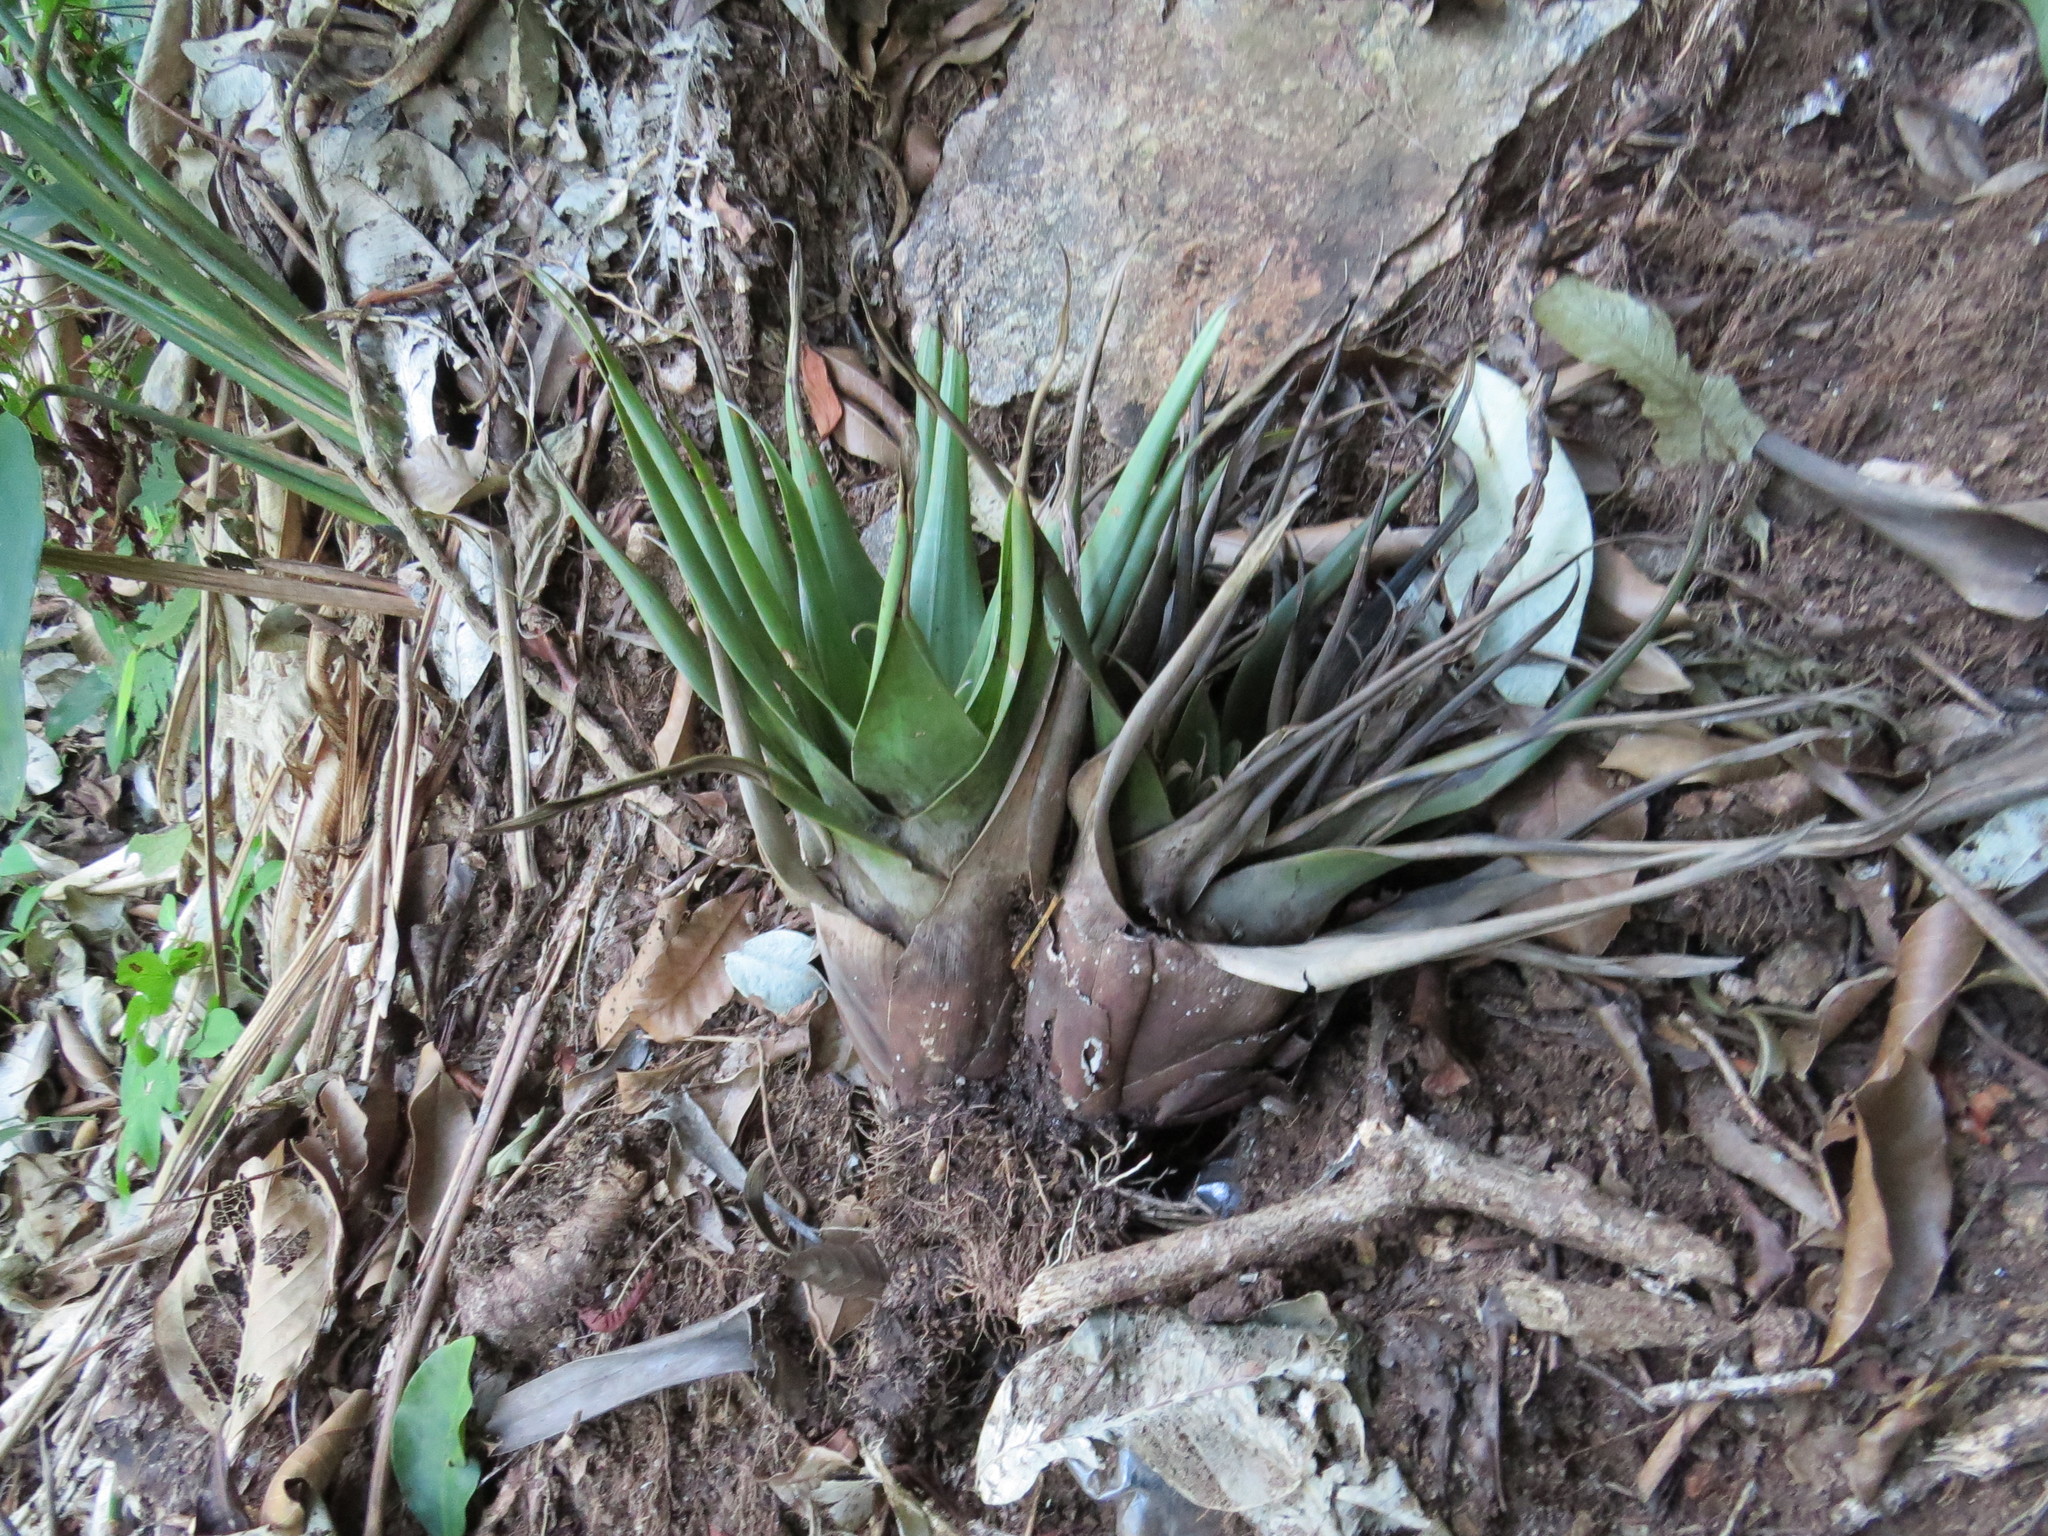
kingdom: Plantae
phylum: Tracheophyta
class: Liliopsida
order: Poales
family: Bromeliaceae
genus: Stigmatodon
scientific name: Stigmatodon goniorachis
